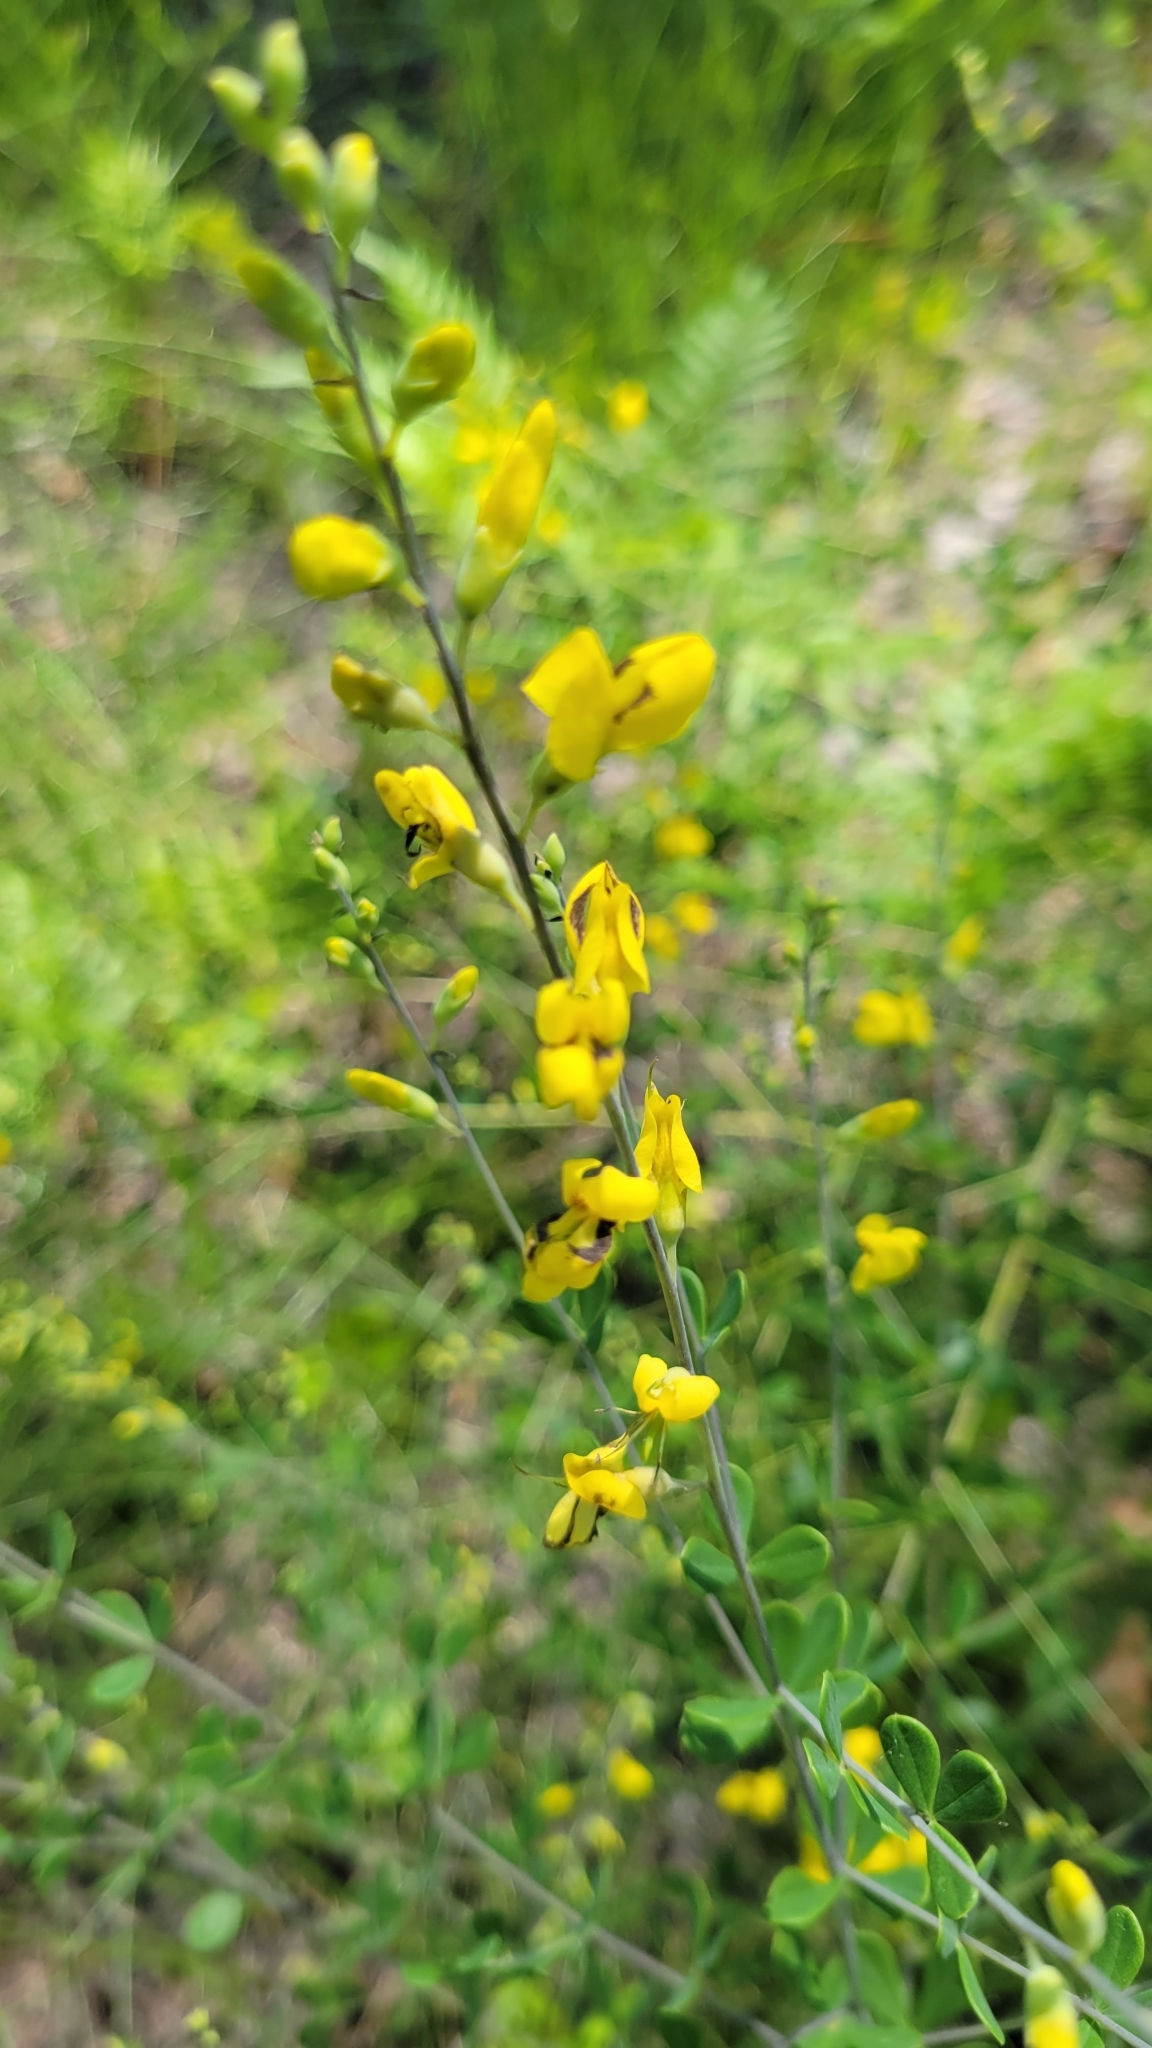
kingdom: Plantae
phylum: Tracheophyta
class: Magnoliopsida
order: Fabales
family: Fabaceae
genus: Baptisia
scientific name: Baptisia tinctoria
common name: Wild indigo
